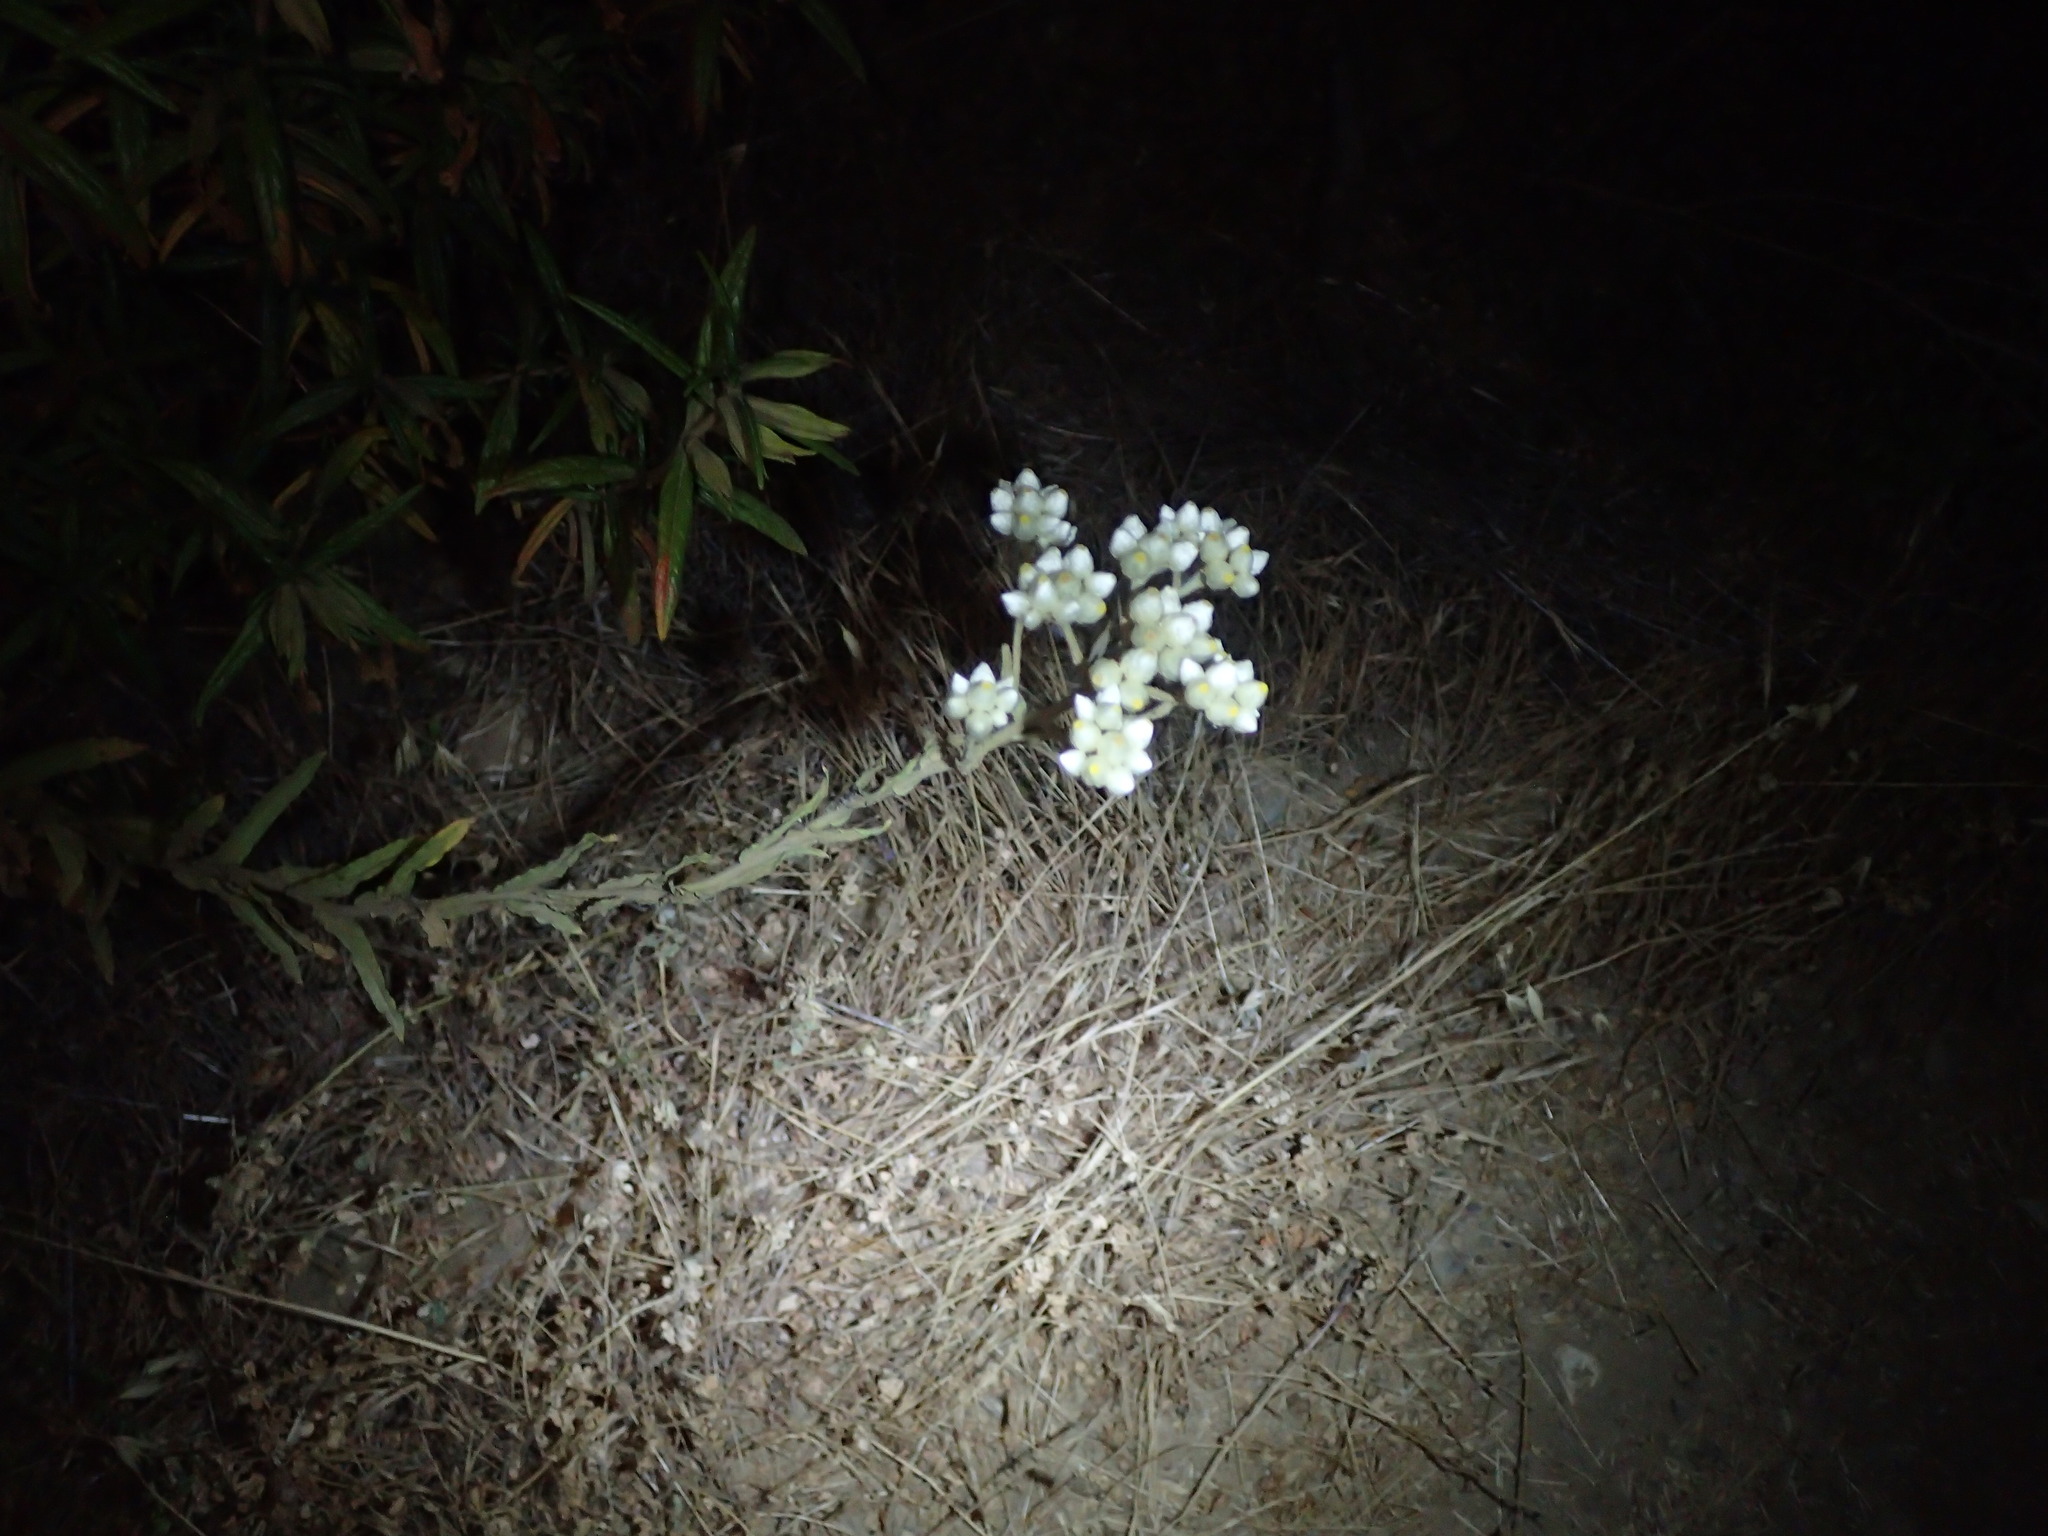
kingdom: Plantae
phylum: Tracheophyta
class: Magnoliopsida
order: Asterales
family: Asteraceae
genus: Pseudognaphalium
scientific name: Pseudognaphalium californicum
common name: California rabbit-tobacco
